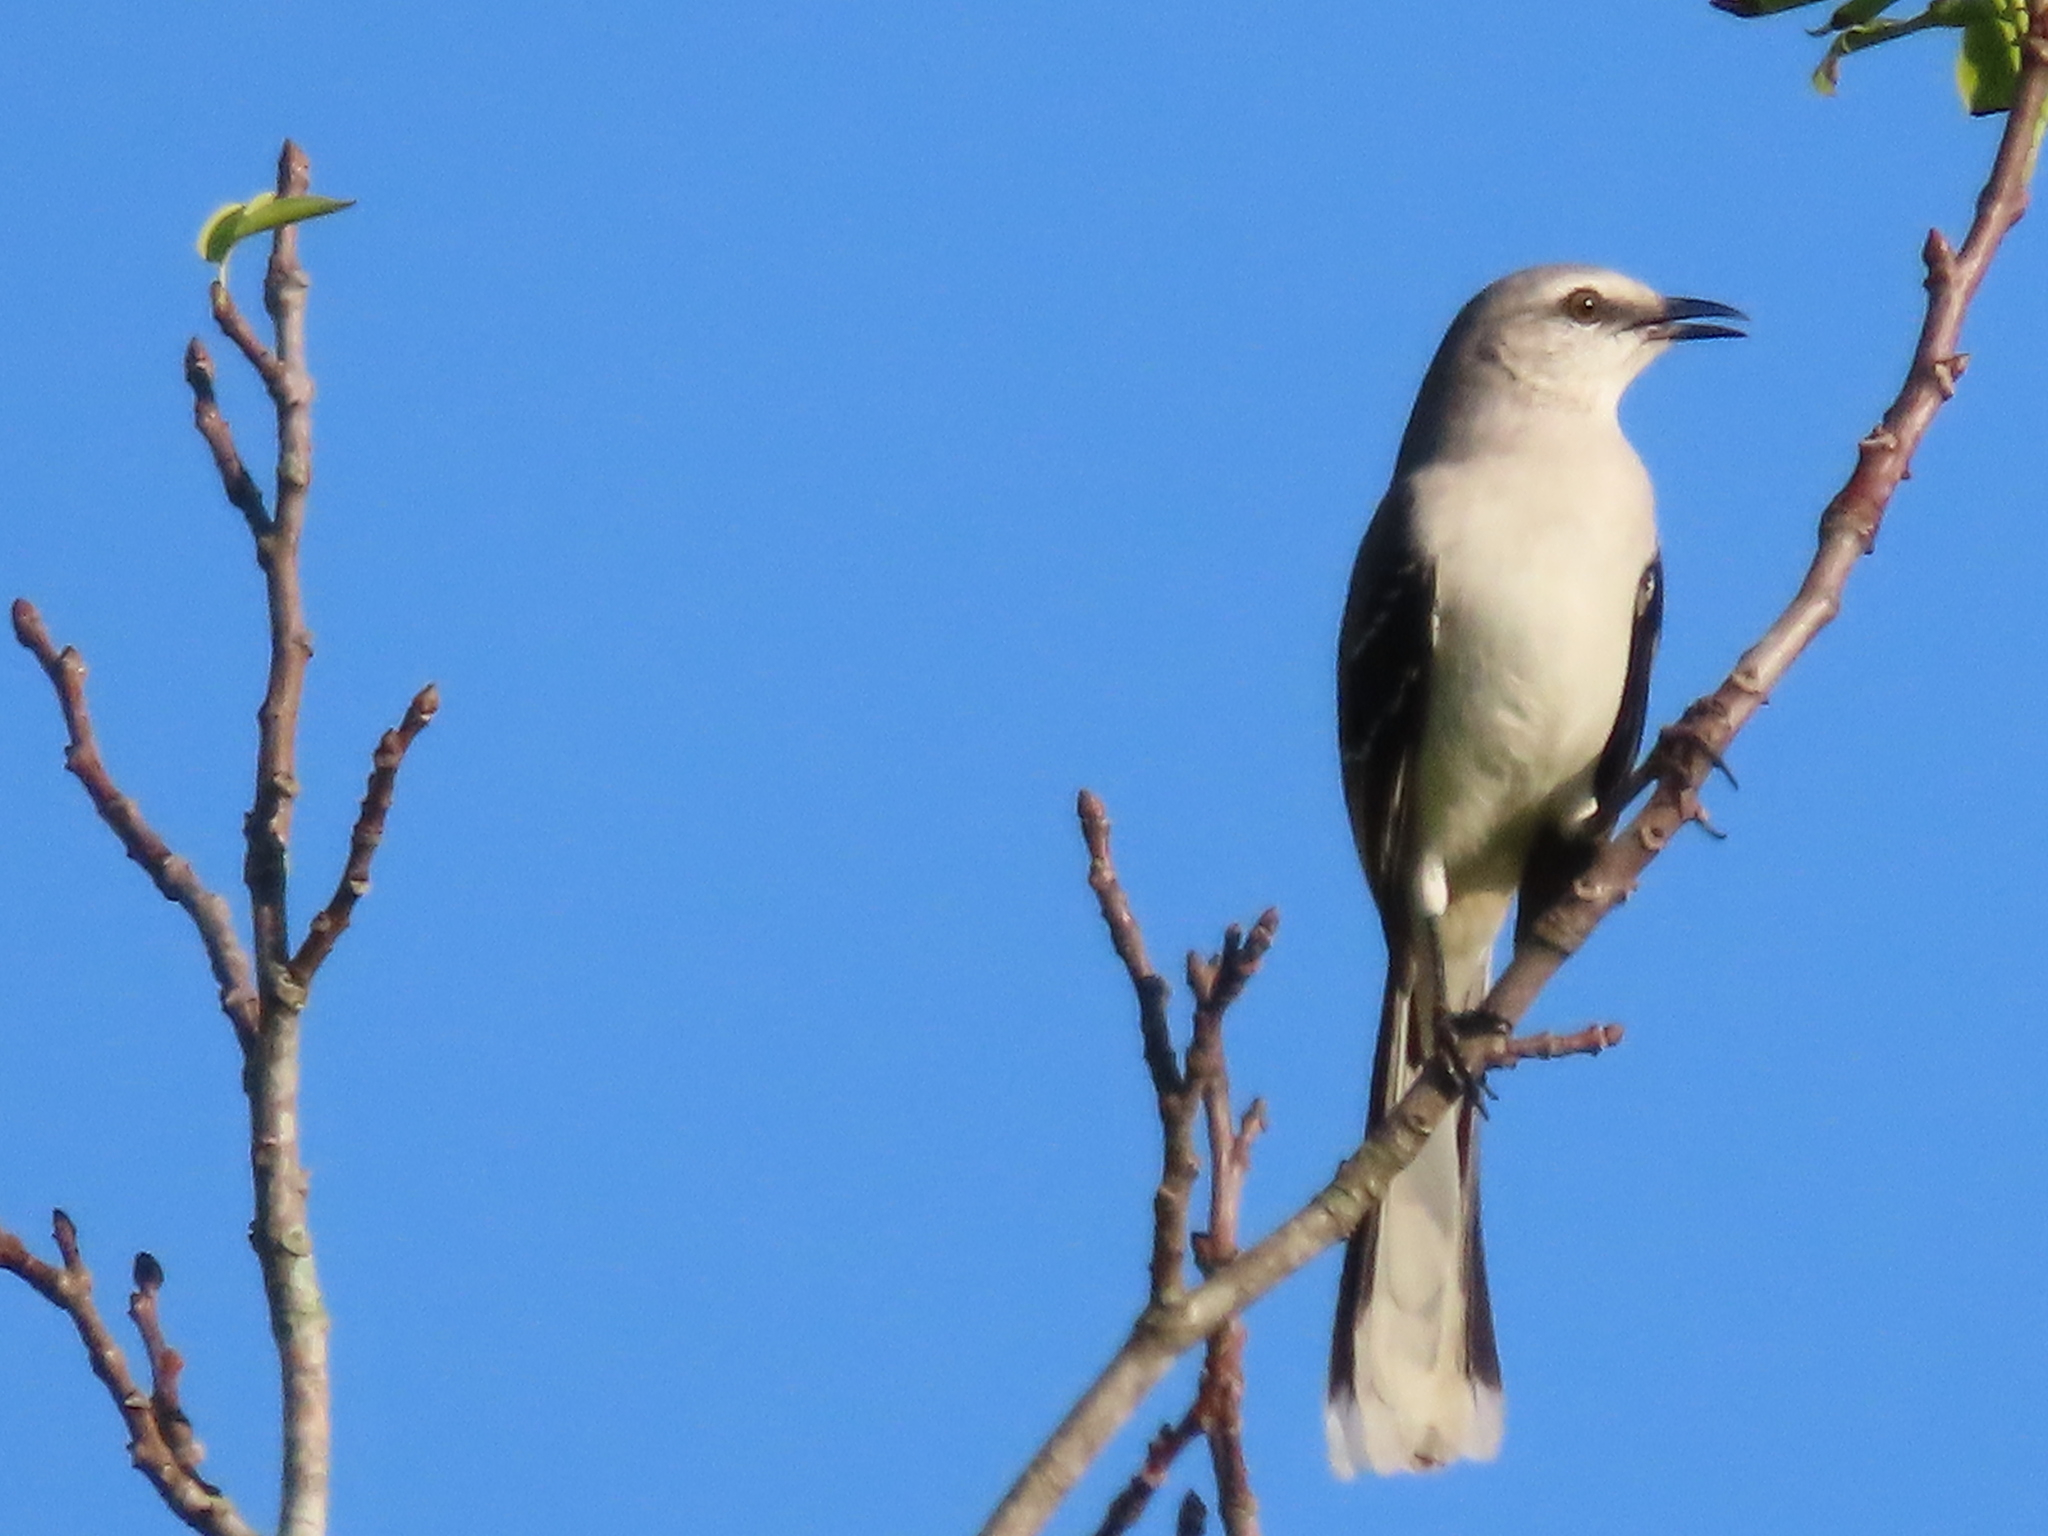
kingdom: Animalia
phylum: Chordata
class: Aves
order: Passeriformes
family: Mimidae
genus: Mimus
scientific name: Mimus gilvus
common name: Tropical mockingbird
